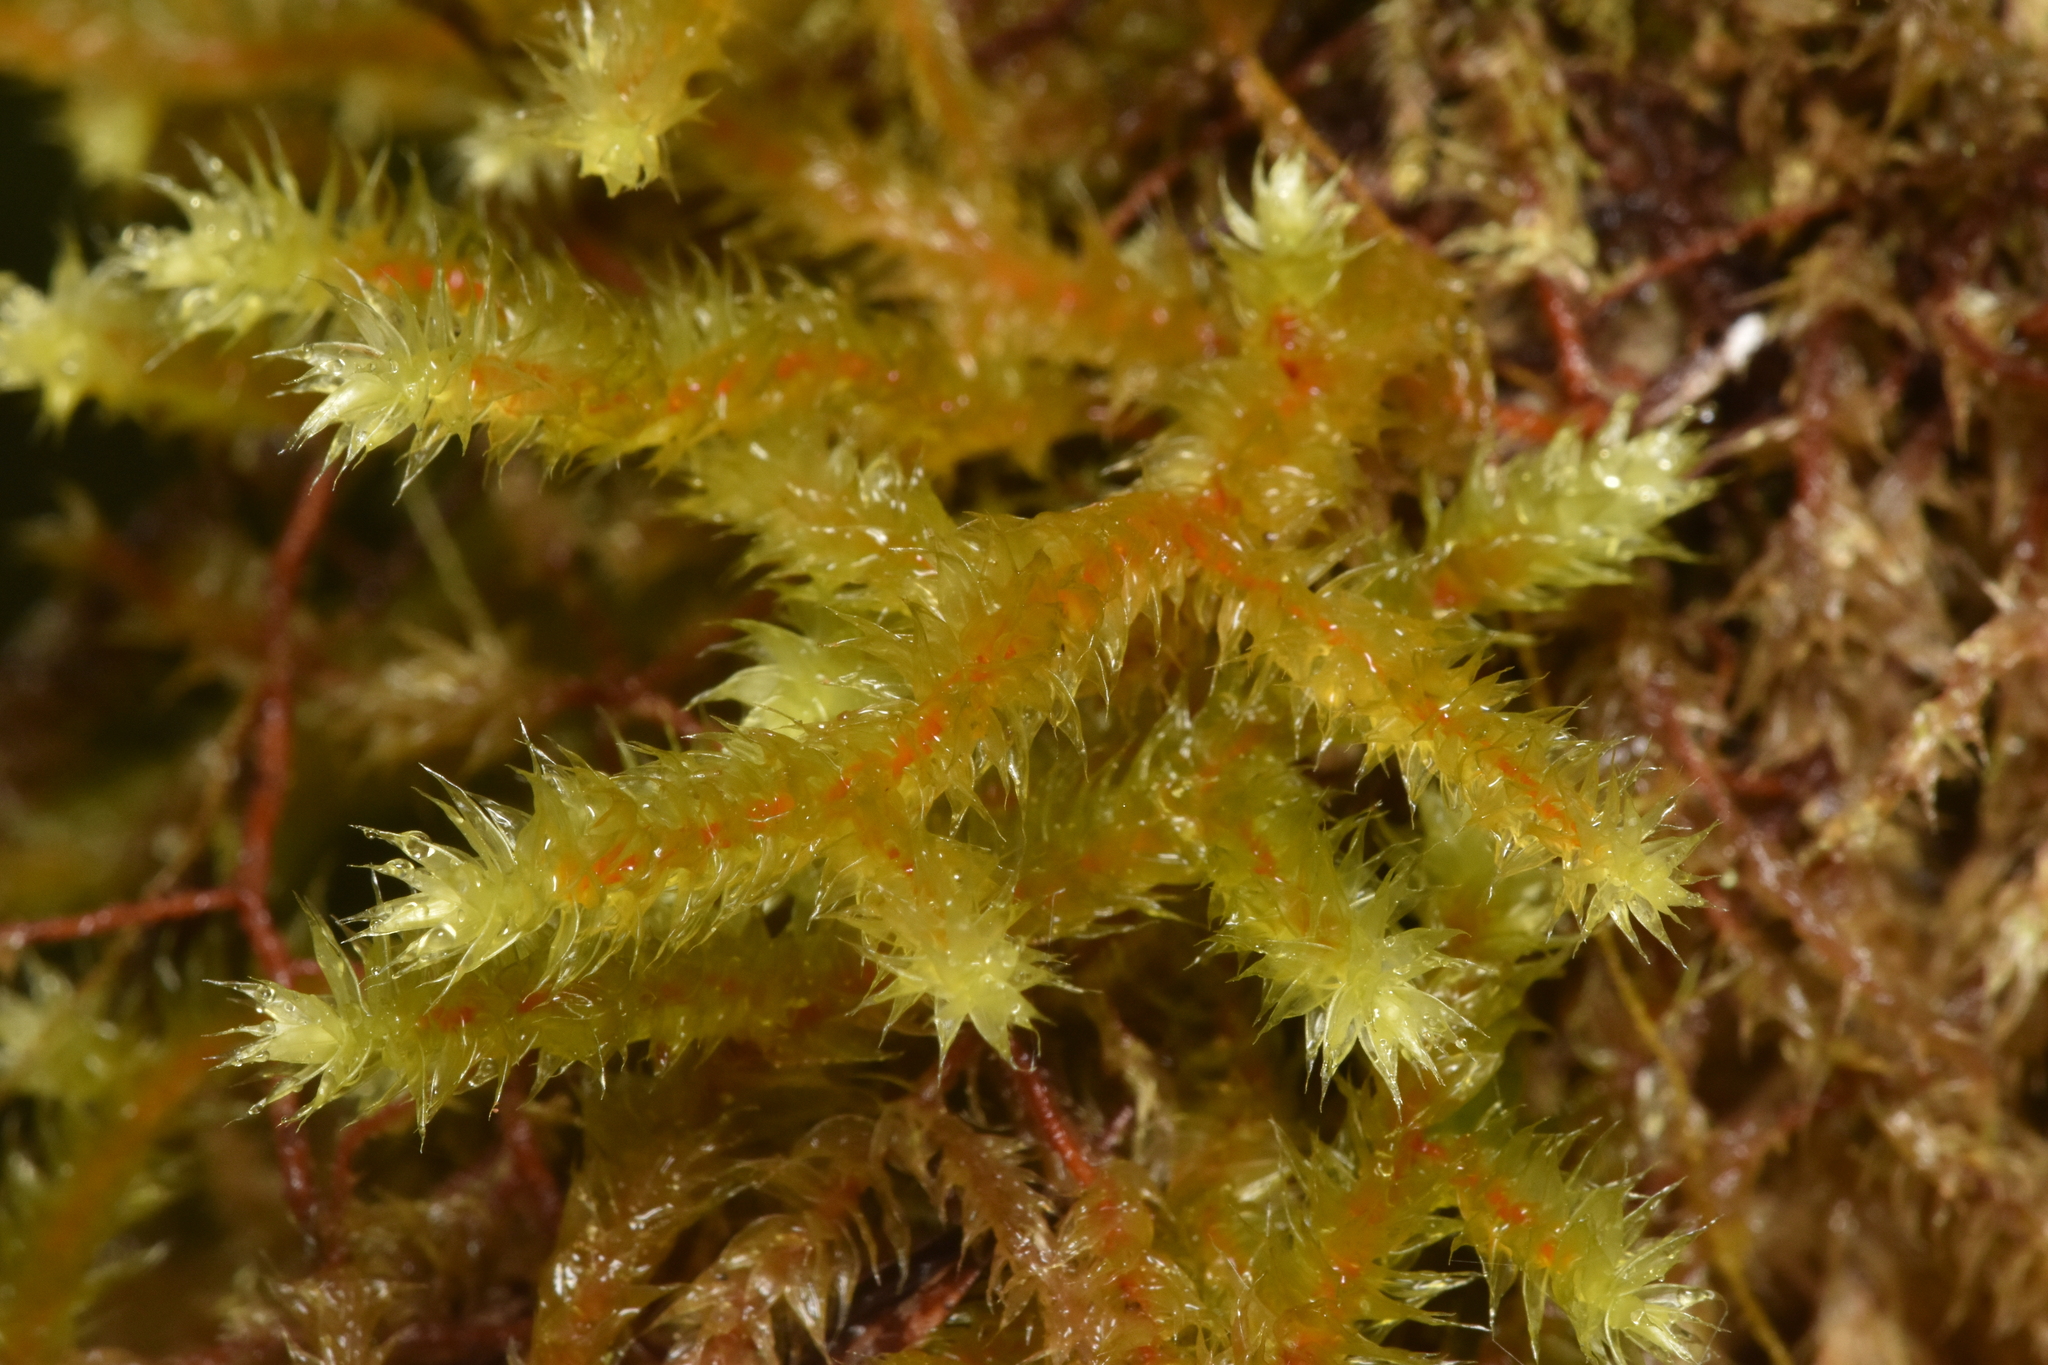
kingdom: Plantae
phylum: Bryophyta
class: Bryopsida
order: Hypnales
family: Antitrichiaceae
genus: Antitrichia
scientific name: Antitrichia curtipendula
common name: Pendulous wing-moss
